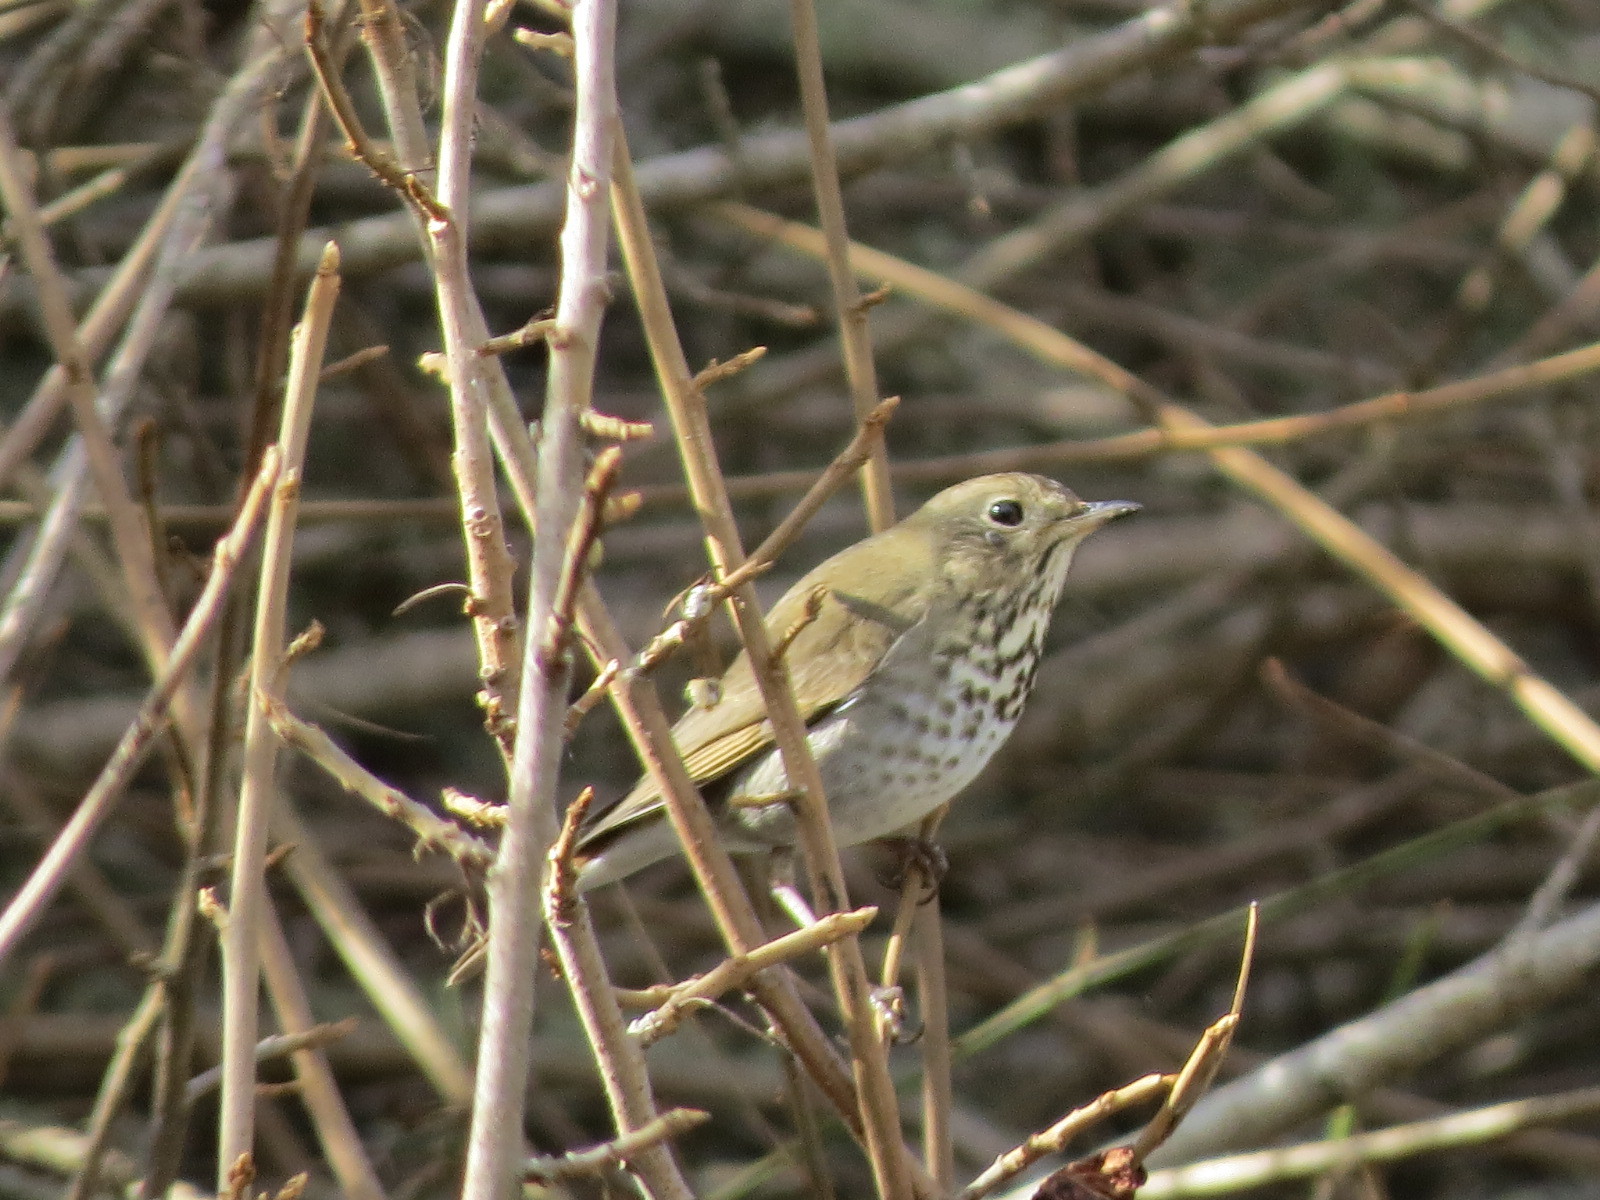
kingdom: Animalia
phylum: Chordata
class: Aves
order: Passeriformes
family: Turdidae
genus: Catharus
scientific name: Catharus guttatus
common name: Hermit thrush
